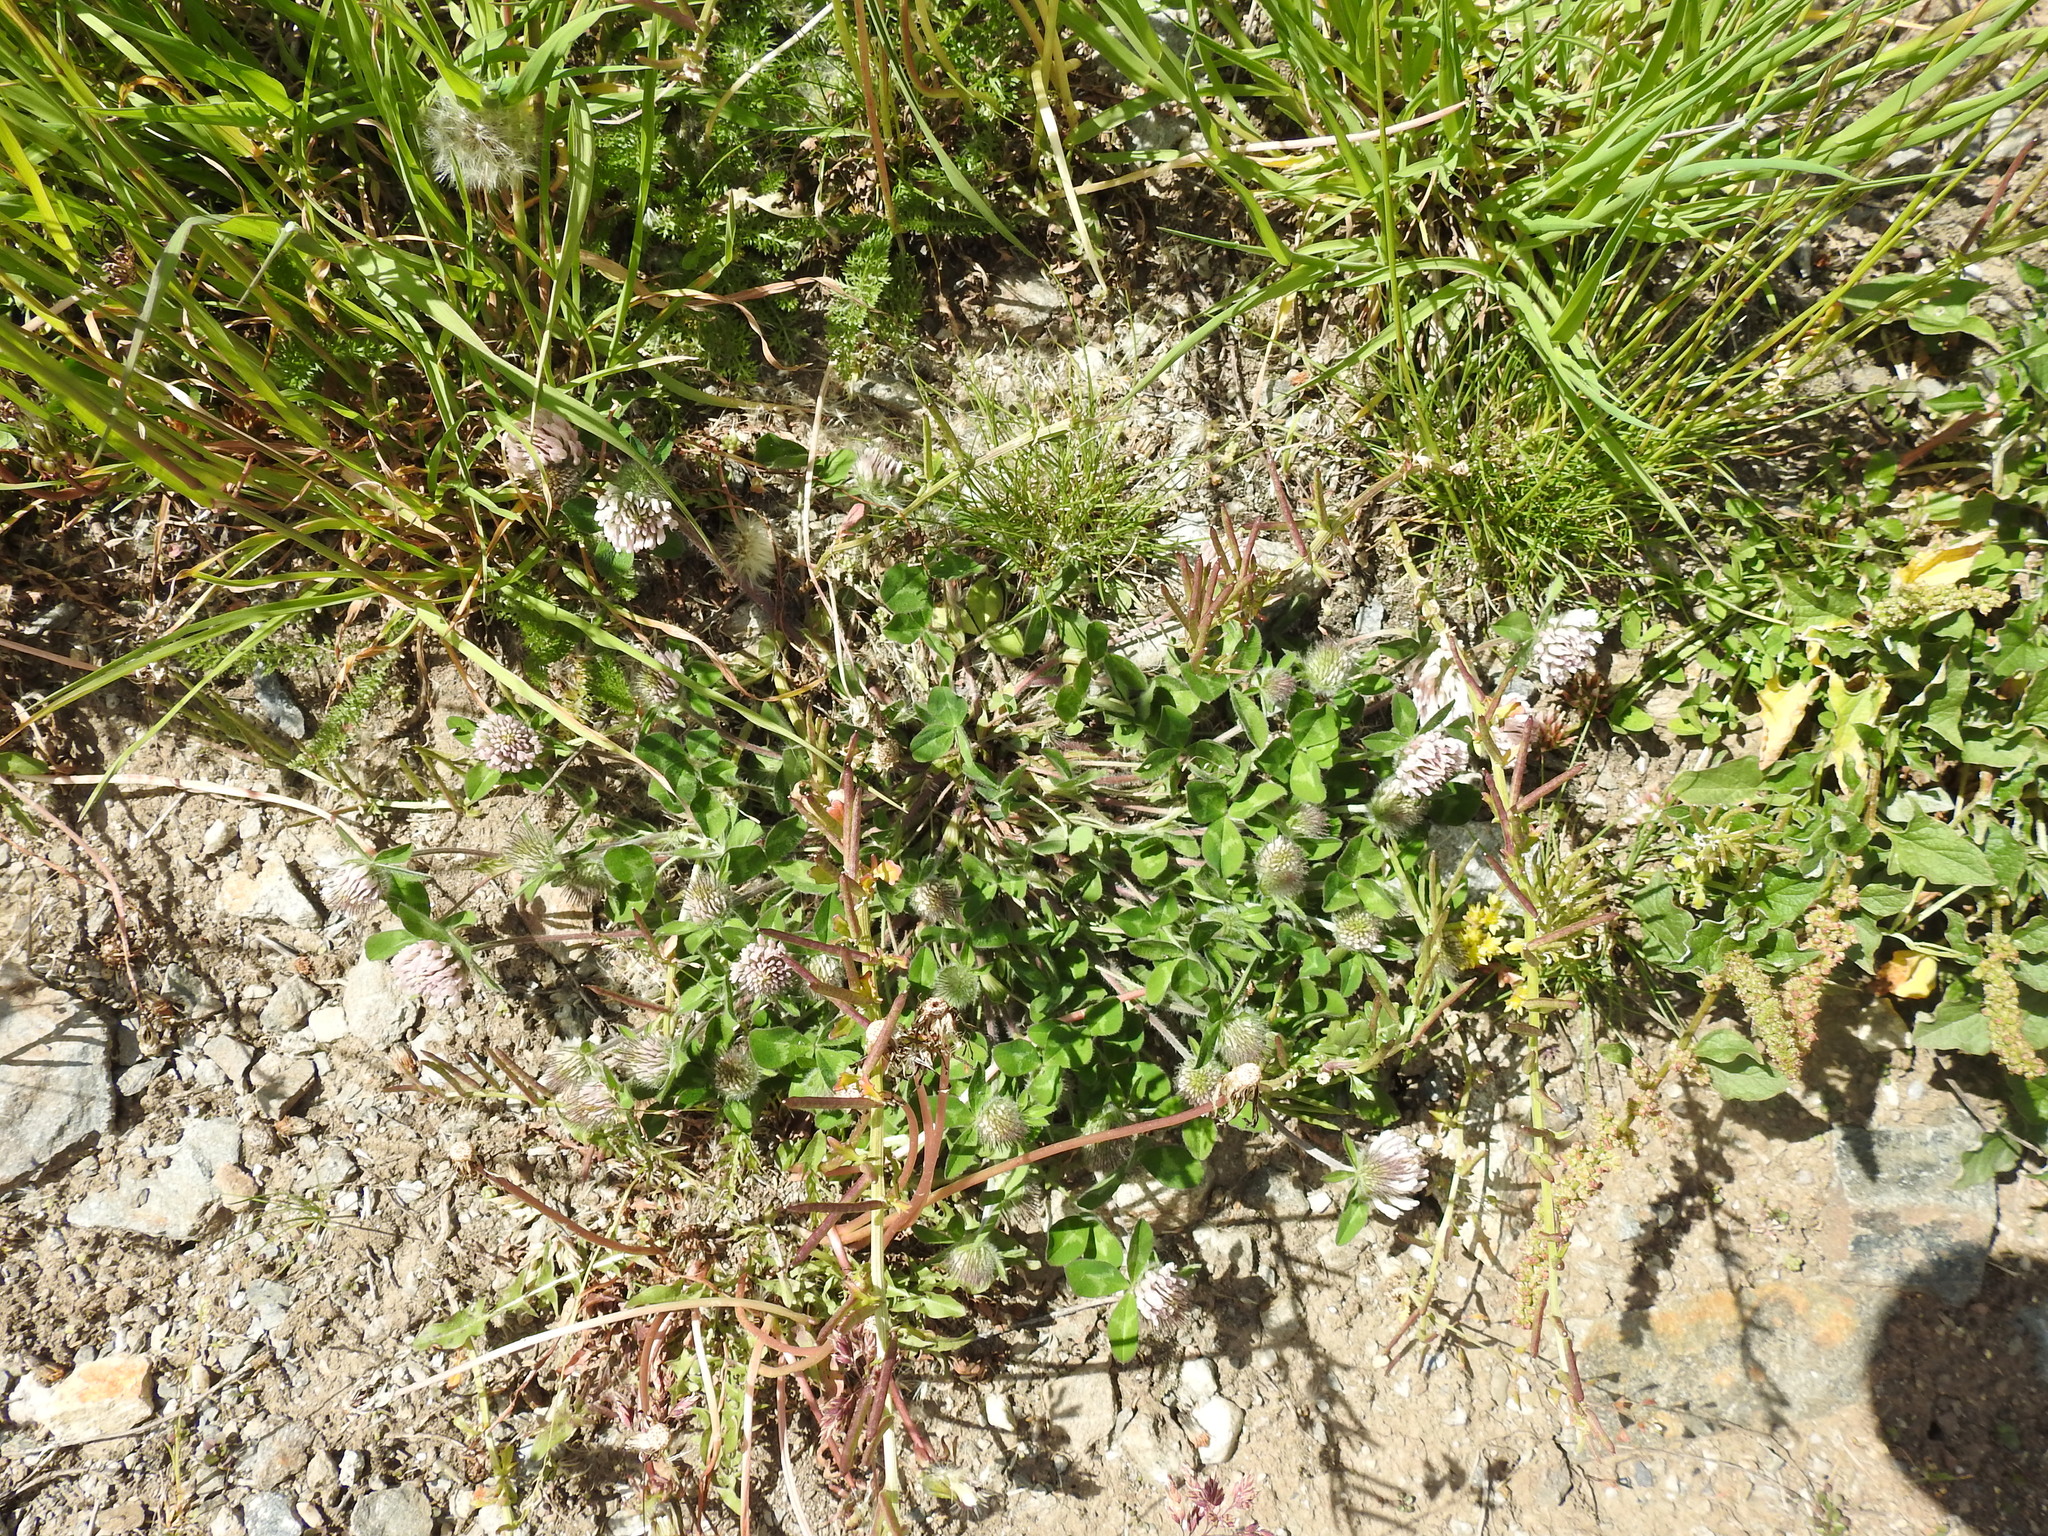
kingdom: Plantae
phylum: Tracheophyta
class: Magnoliopsida
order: Fabales
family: Fabaceae
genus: Trifolium
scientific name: Trifolium pratense
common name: Red clover
